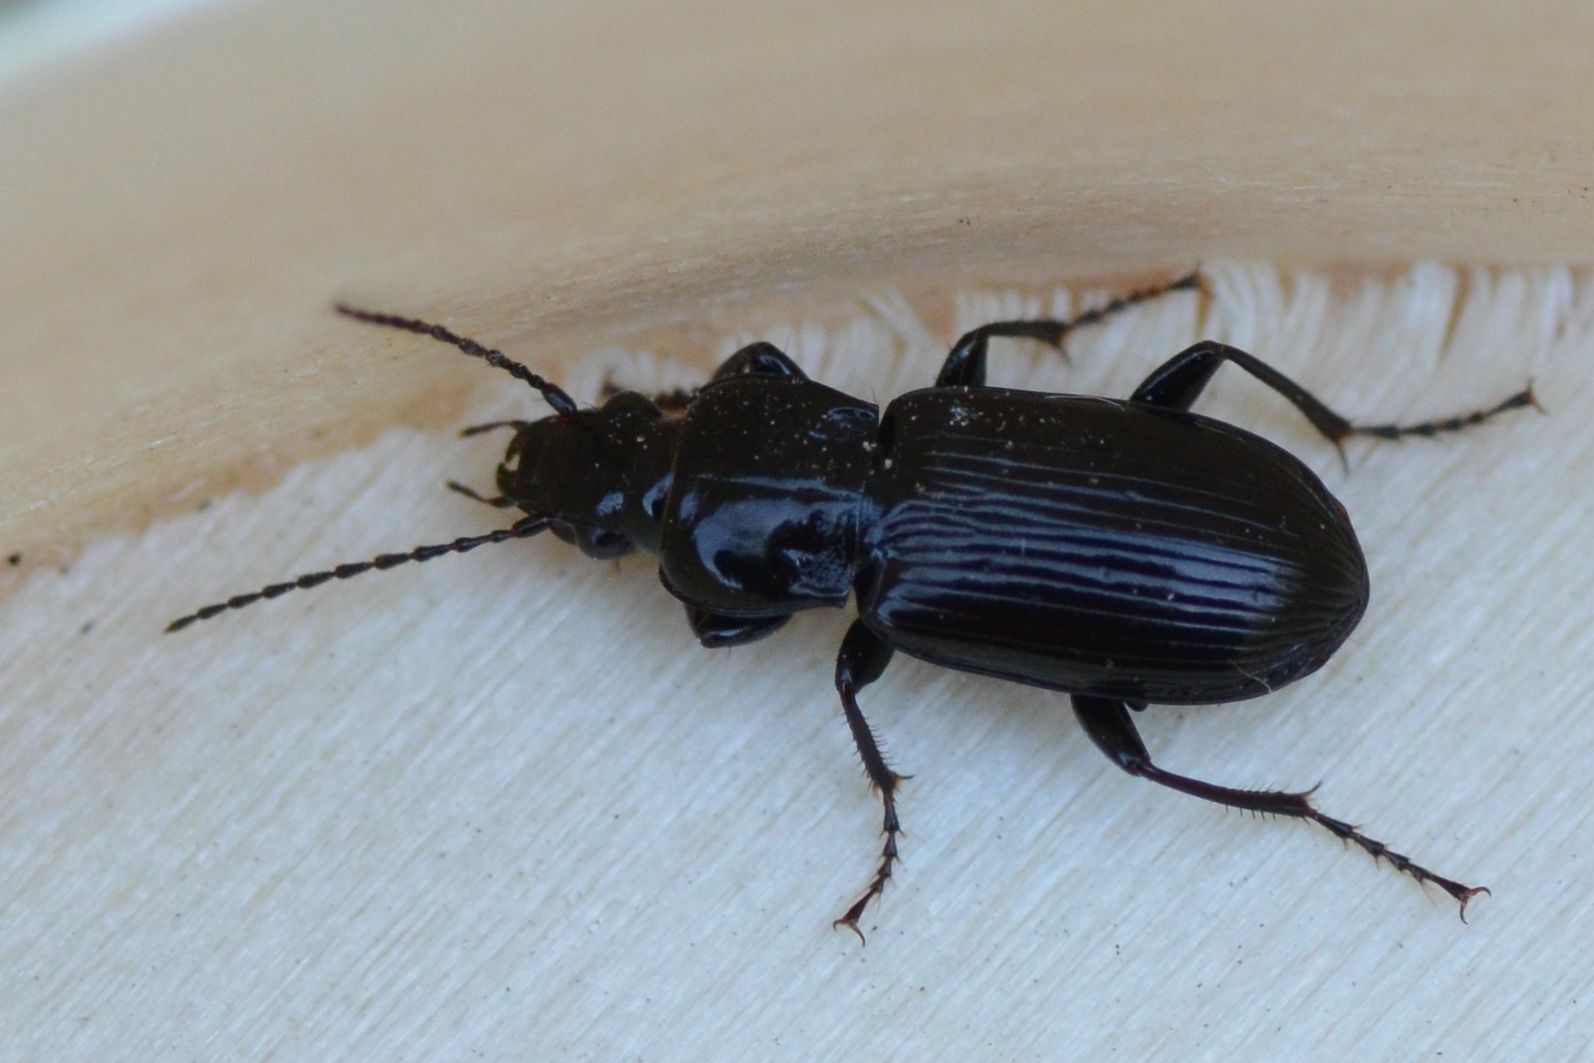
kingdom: Animalia
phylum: Arthropoda
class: Insecta
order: Coleoptera
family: Carabidae
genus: Pterostichus
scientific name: Pterostichus melanarius
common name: European dark harp ground beetle
